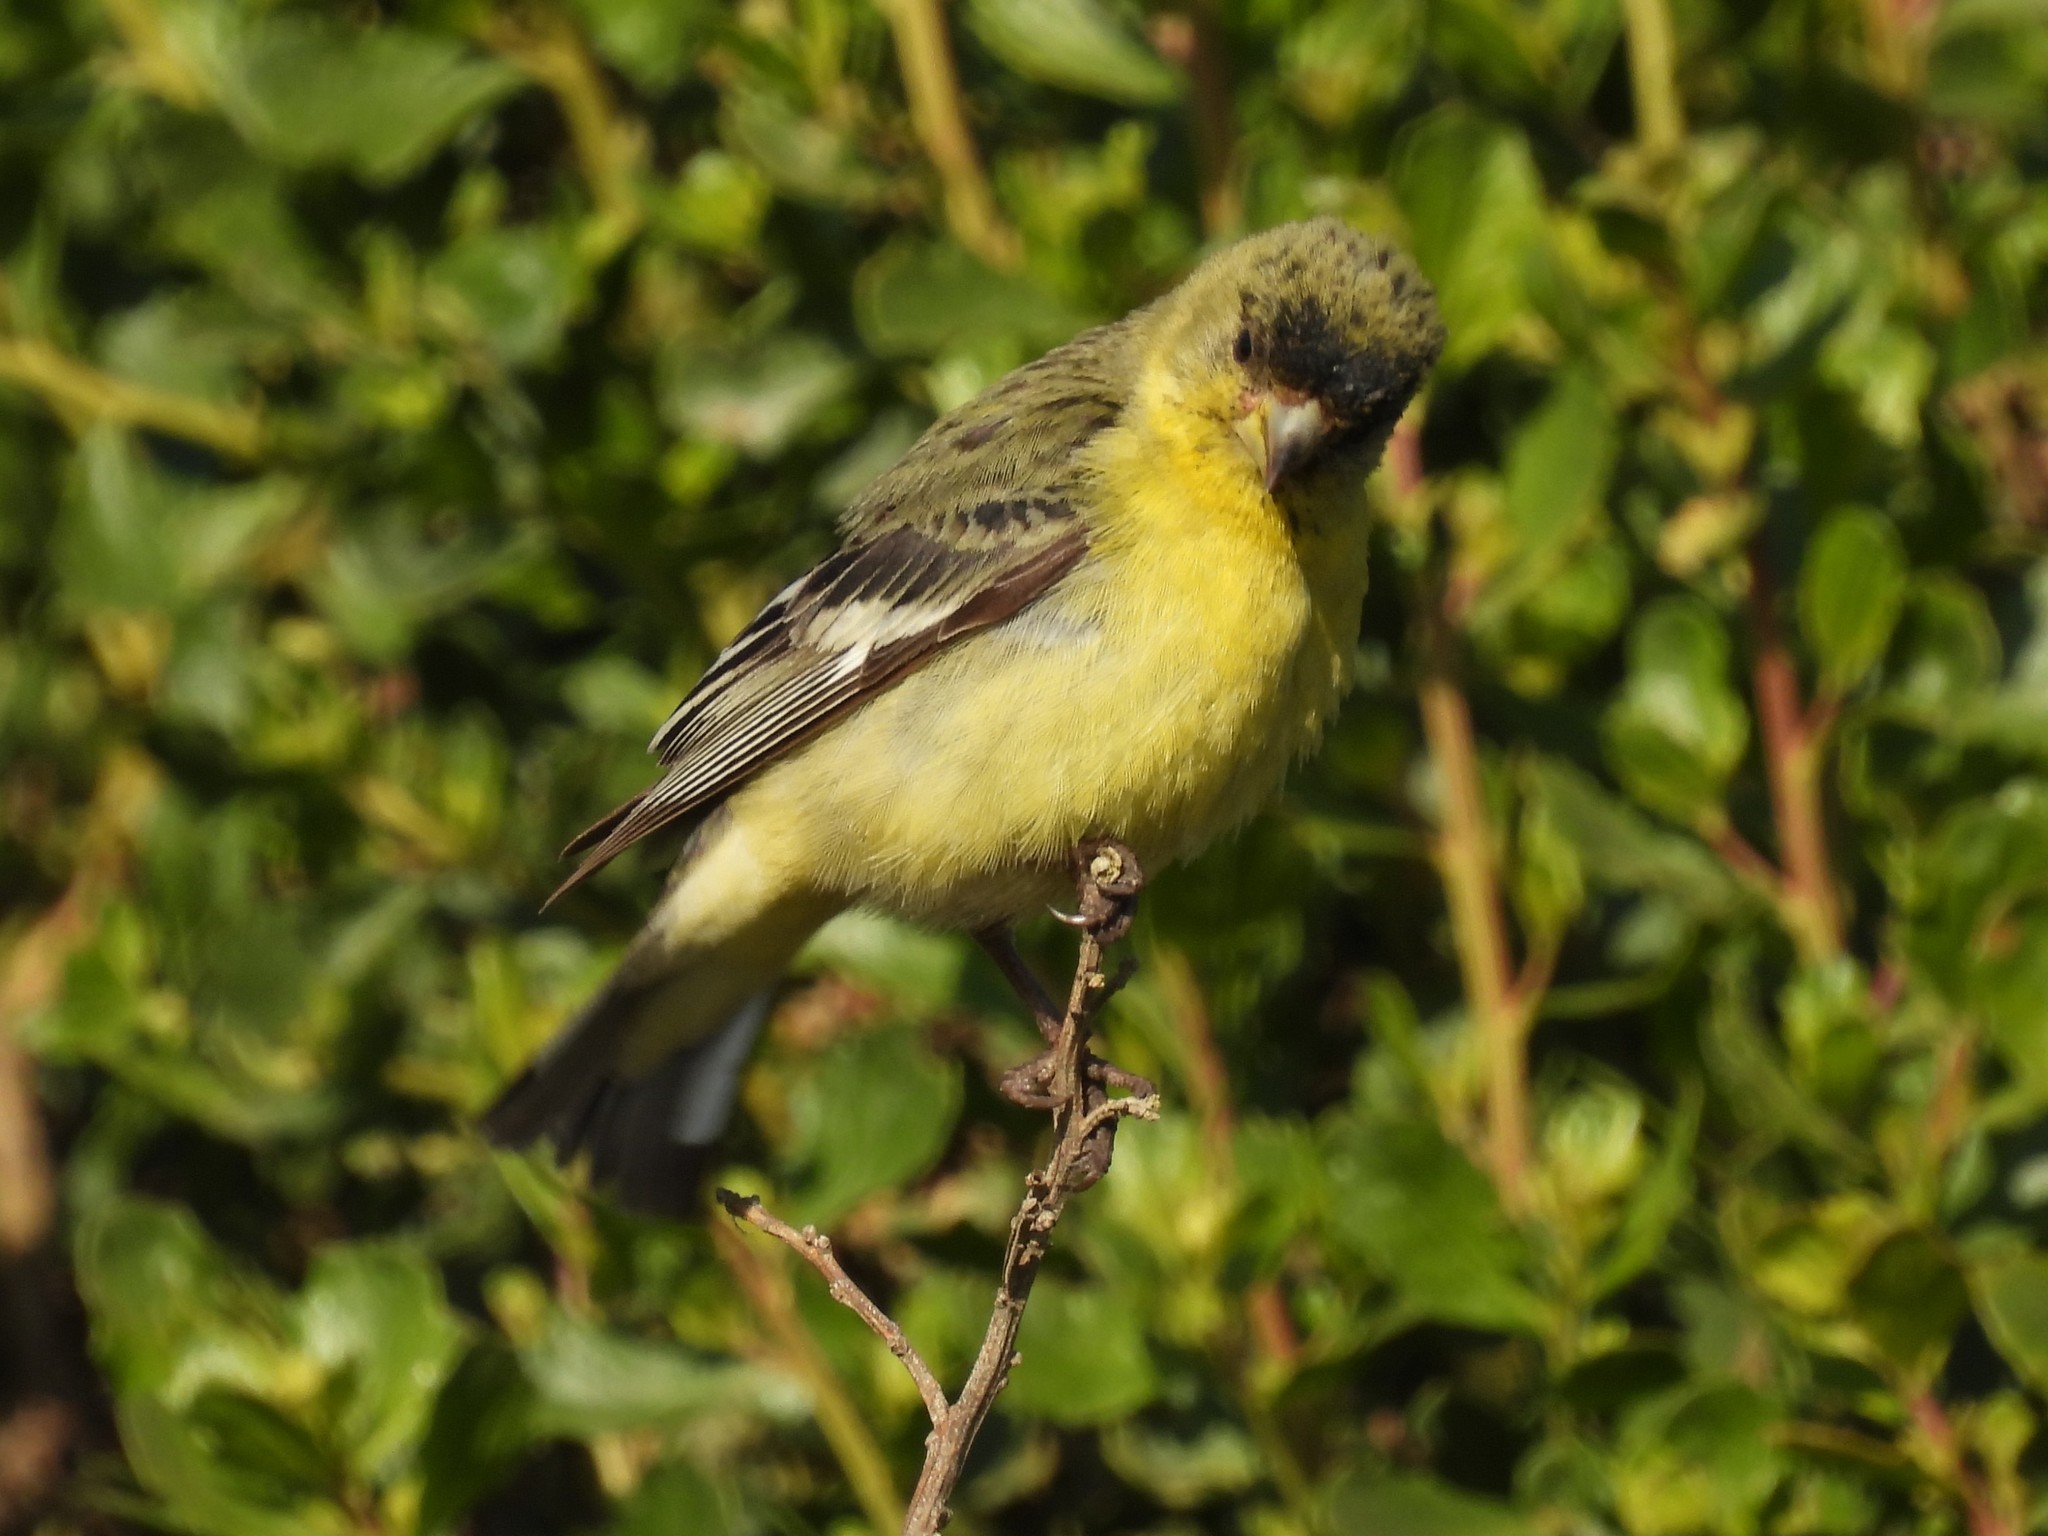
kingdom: Animalia
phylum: Chordata
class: Aves
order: Passeriformes
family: Fringillidae
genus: Spinus
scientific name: Spinus psaltria
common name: Lesser goldfinch
